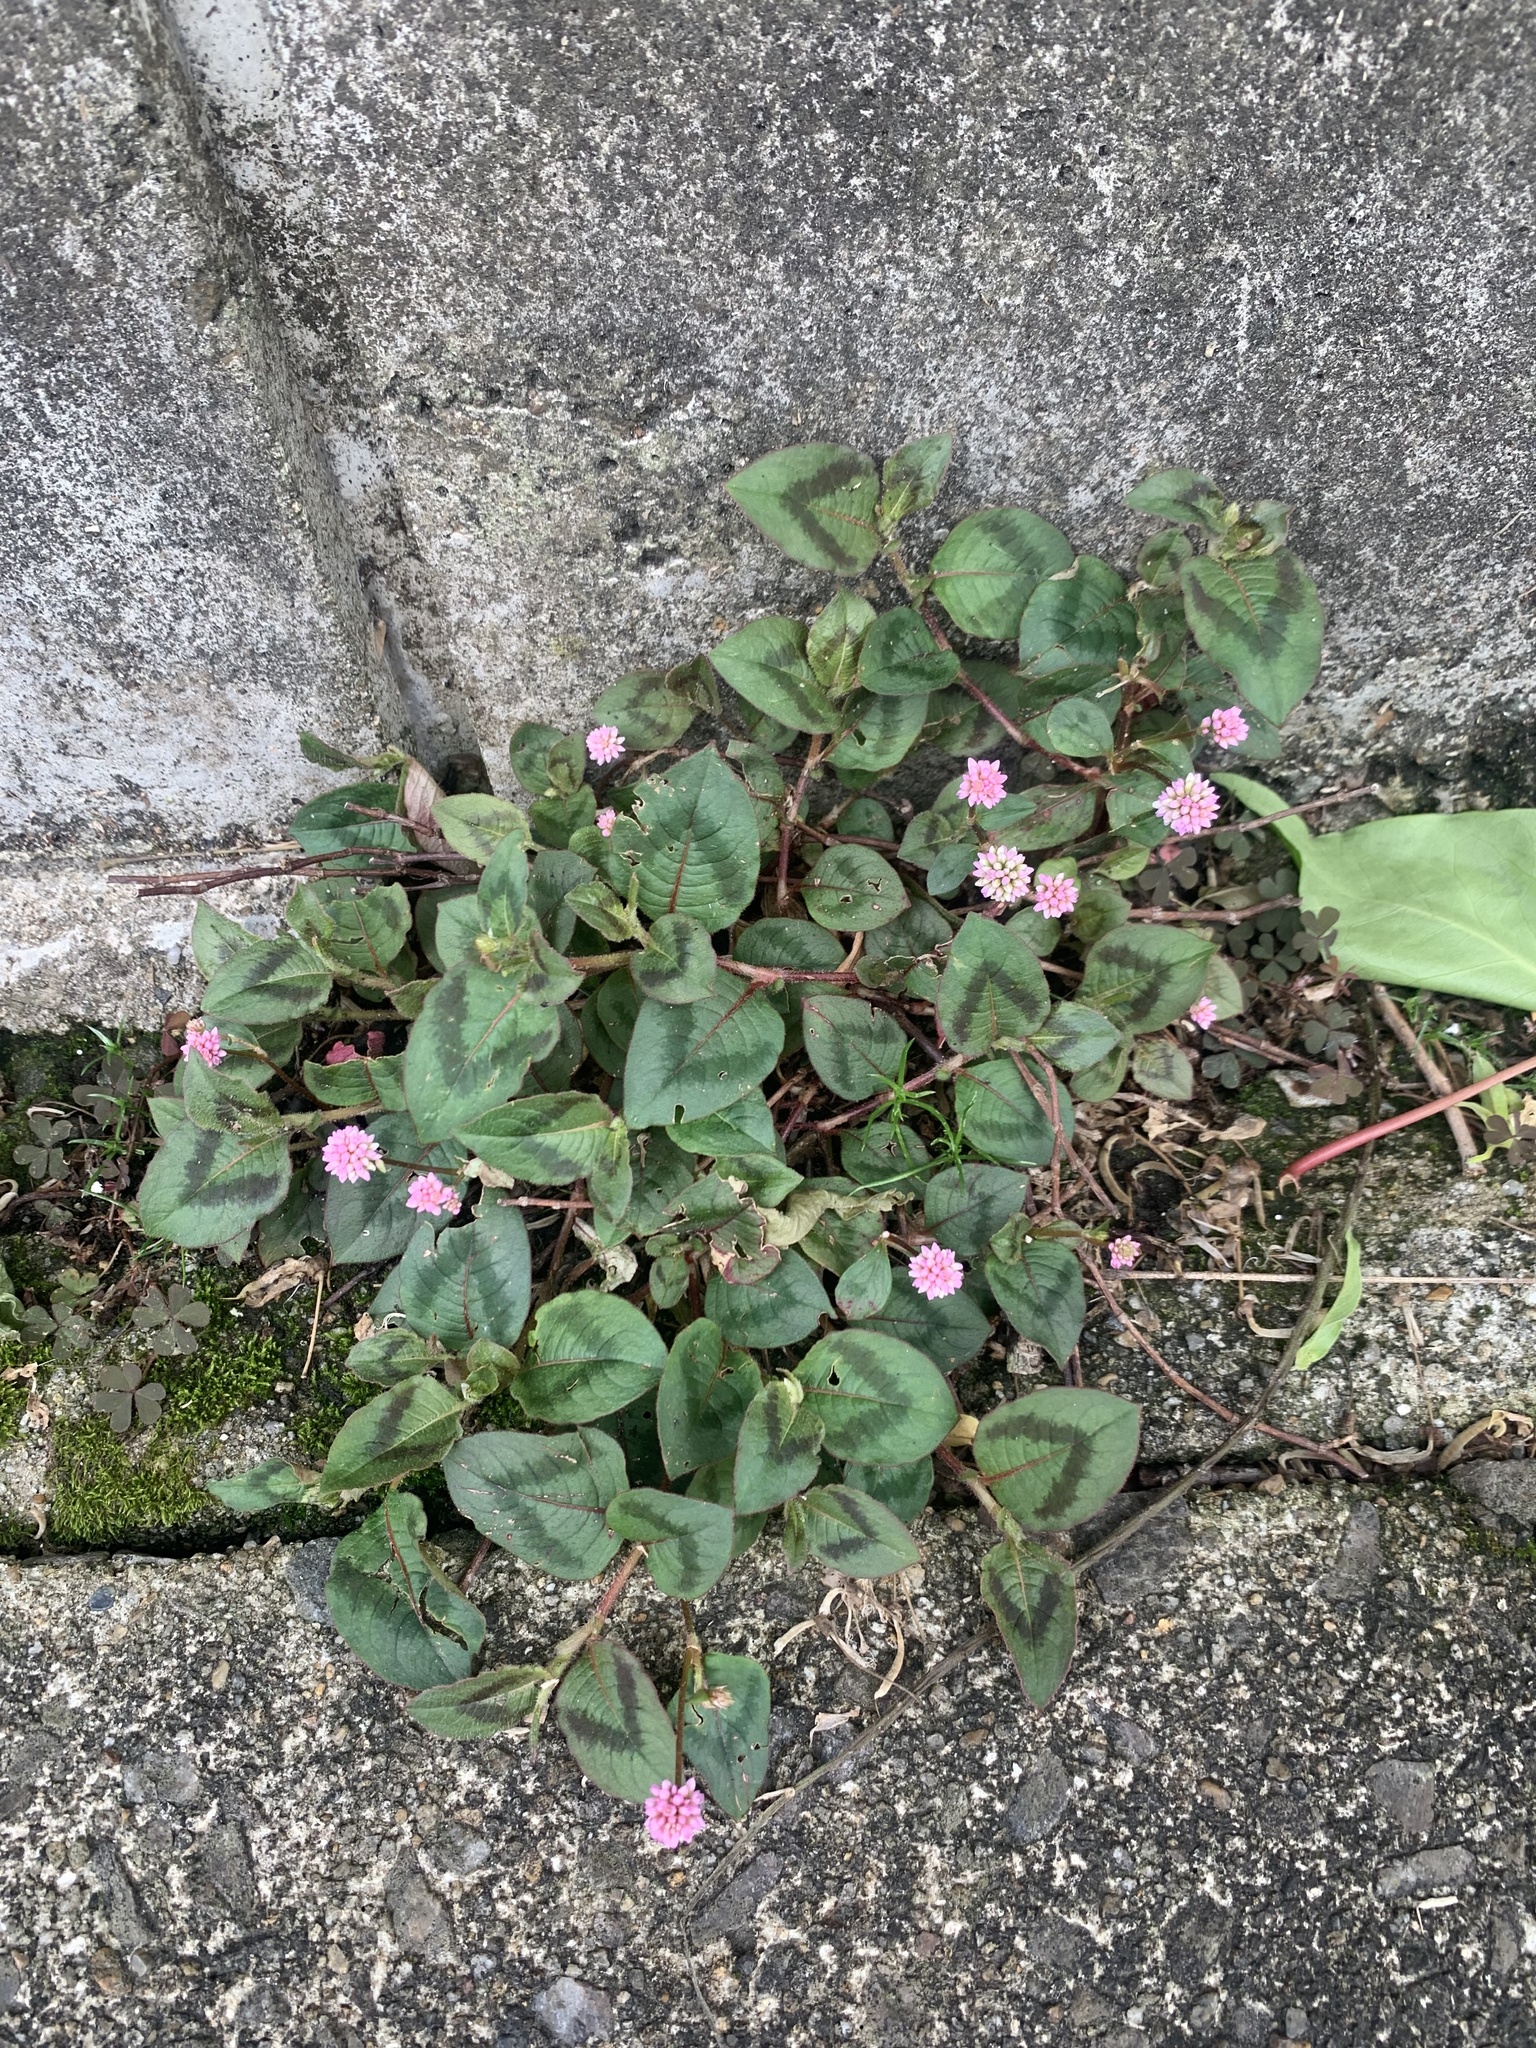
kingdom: Plantae
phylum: Tracheophyta
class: Magnoliopsida
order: Caryophyllales
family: Polygonaceae
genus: Persicaria
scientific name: Persicaria capitata
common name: Pinkhead smartweed
